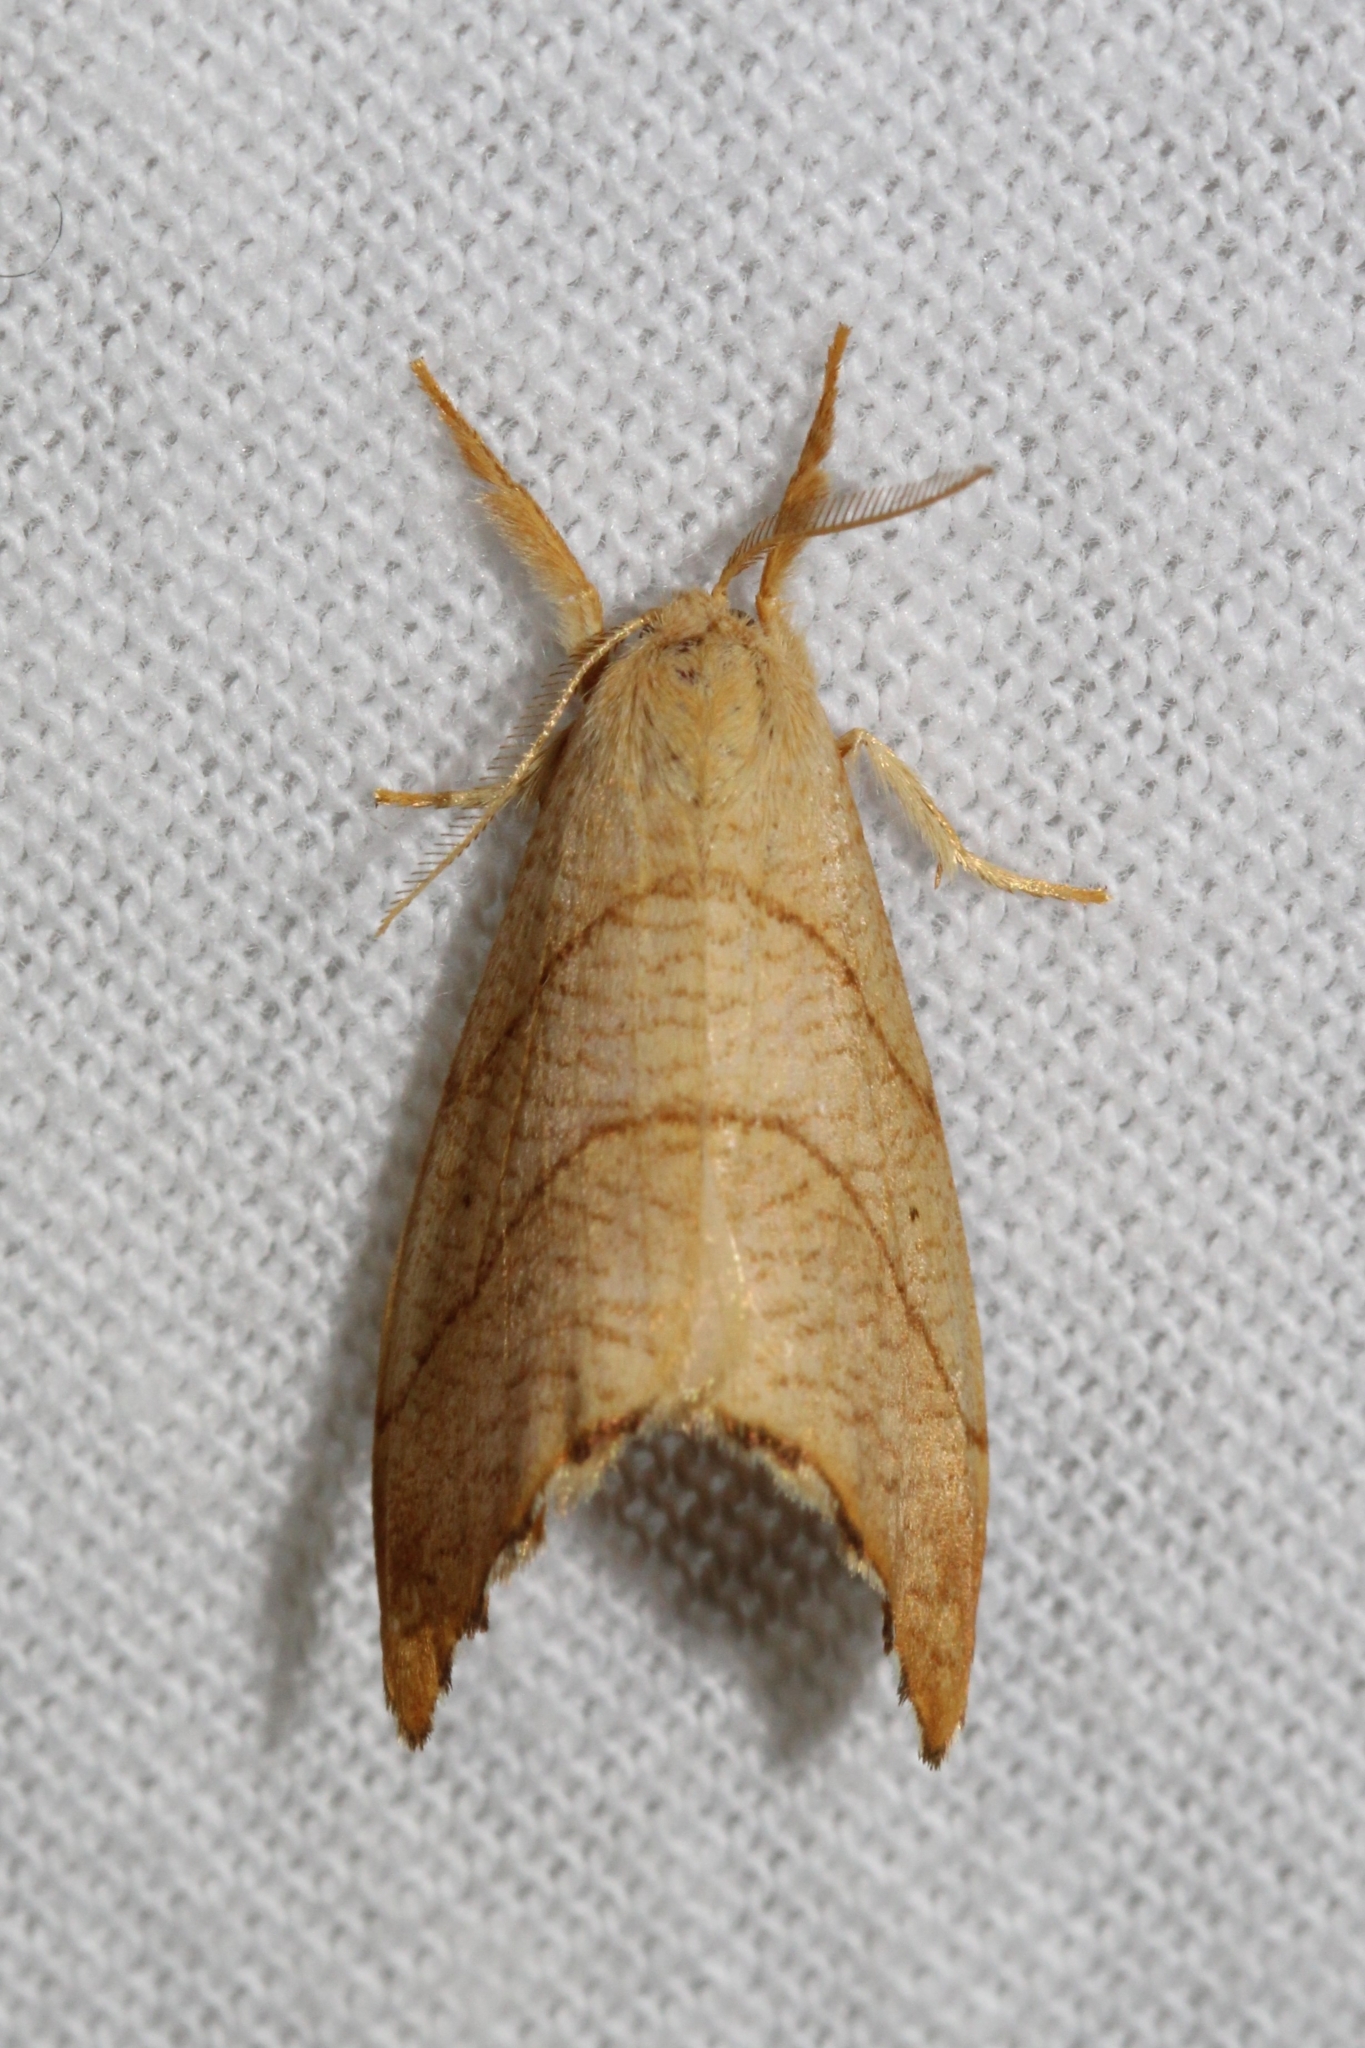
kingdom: Animalia
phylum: Arthropoda
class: Insecta
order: Lepidoptera
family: Drepanidae
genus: Falcaria
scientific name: Falcaria bilineata
